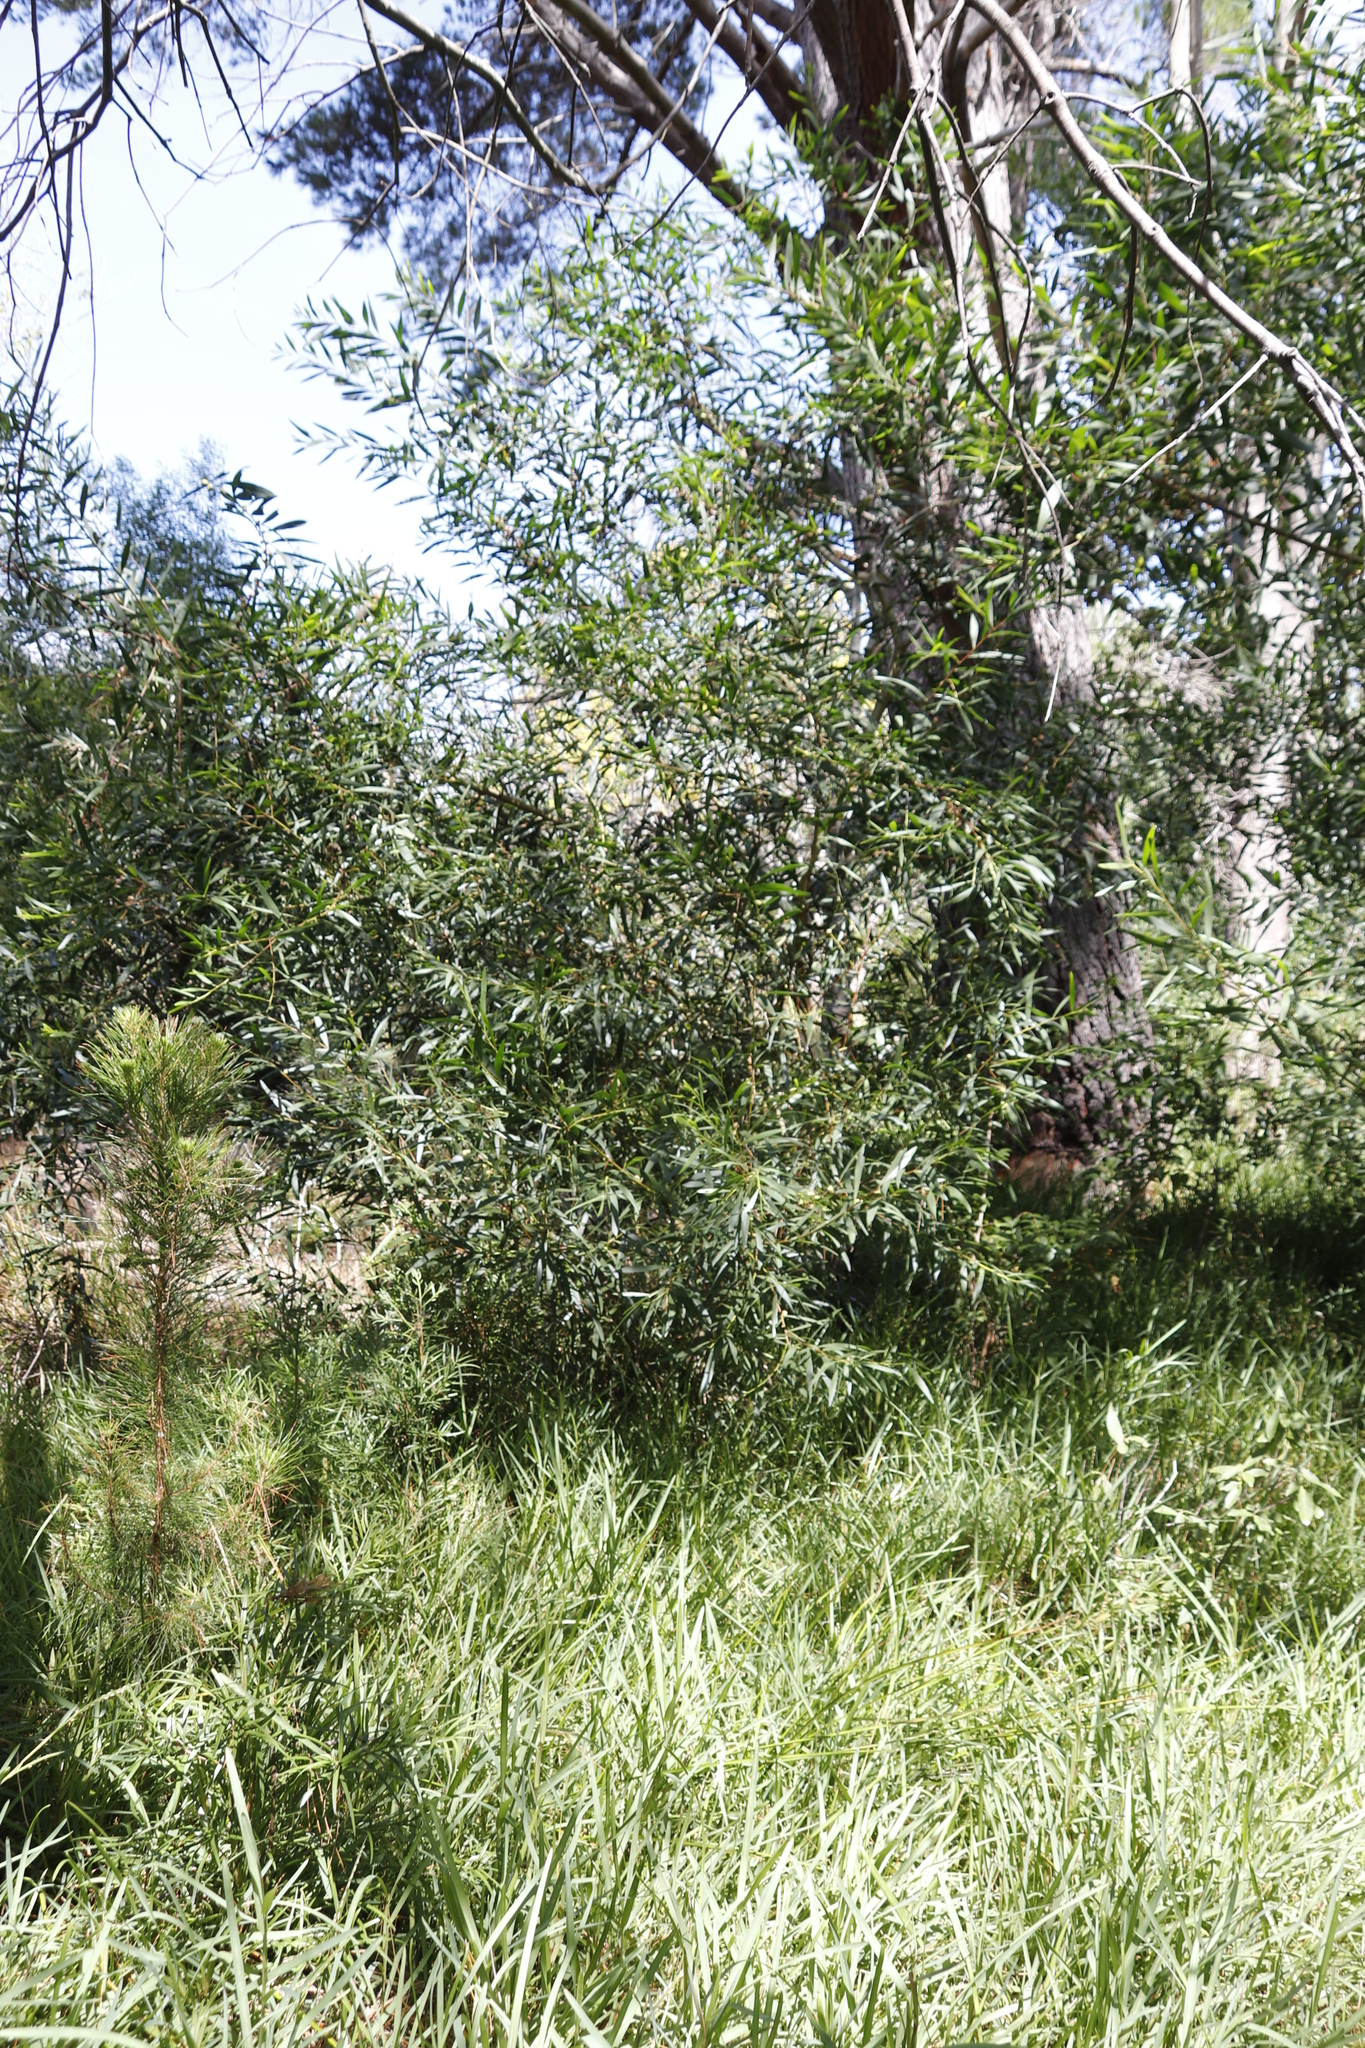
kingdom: Plantae
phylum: Tracheophyta
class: Magnoliopsida
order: Fabales
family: Fabaceae
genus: Acacia
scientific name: Acacia longifolia
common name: Sydney golden wattle
